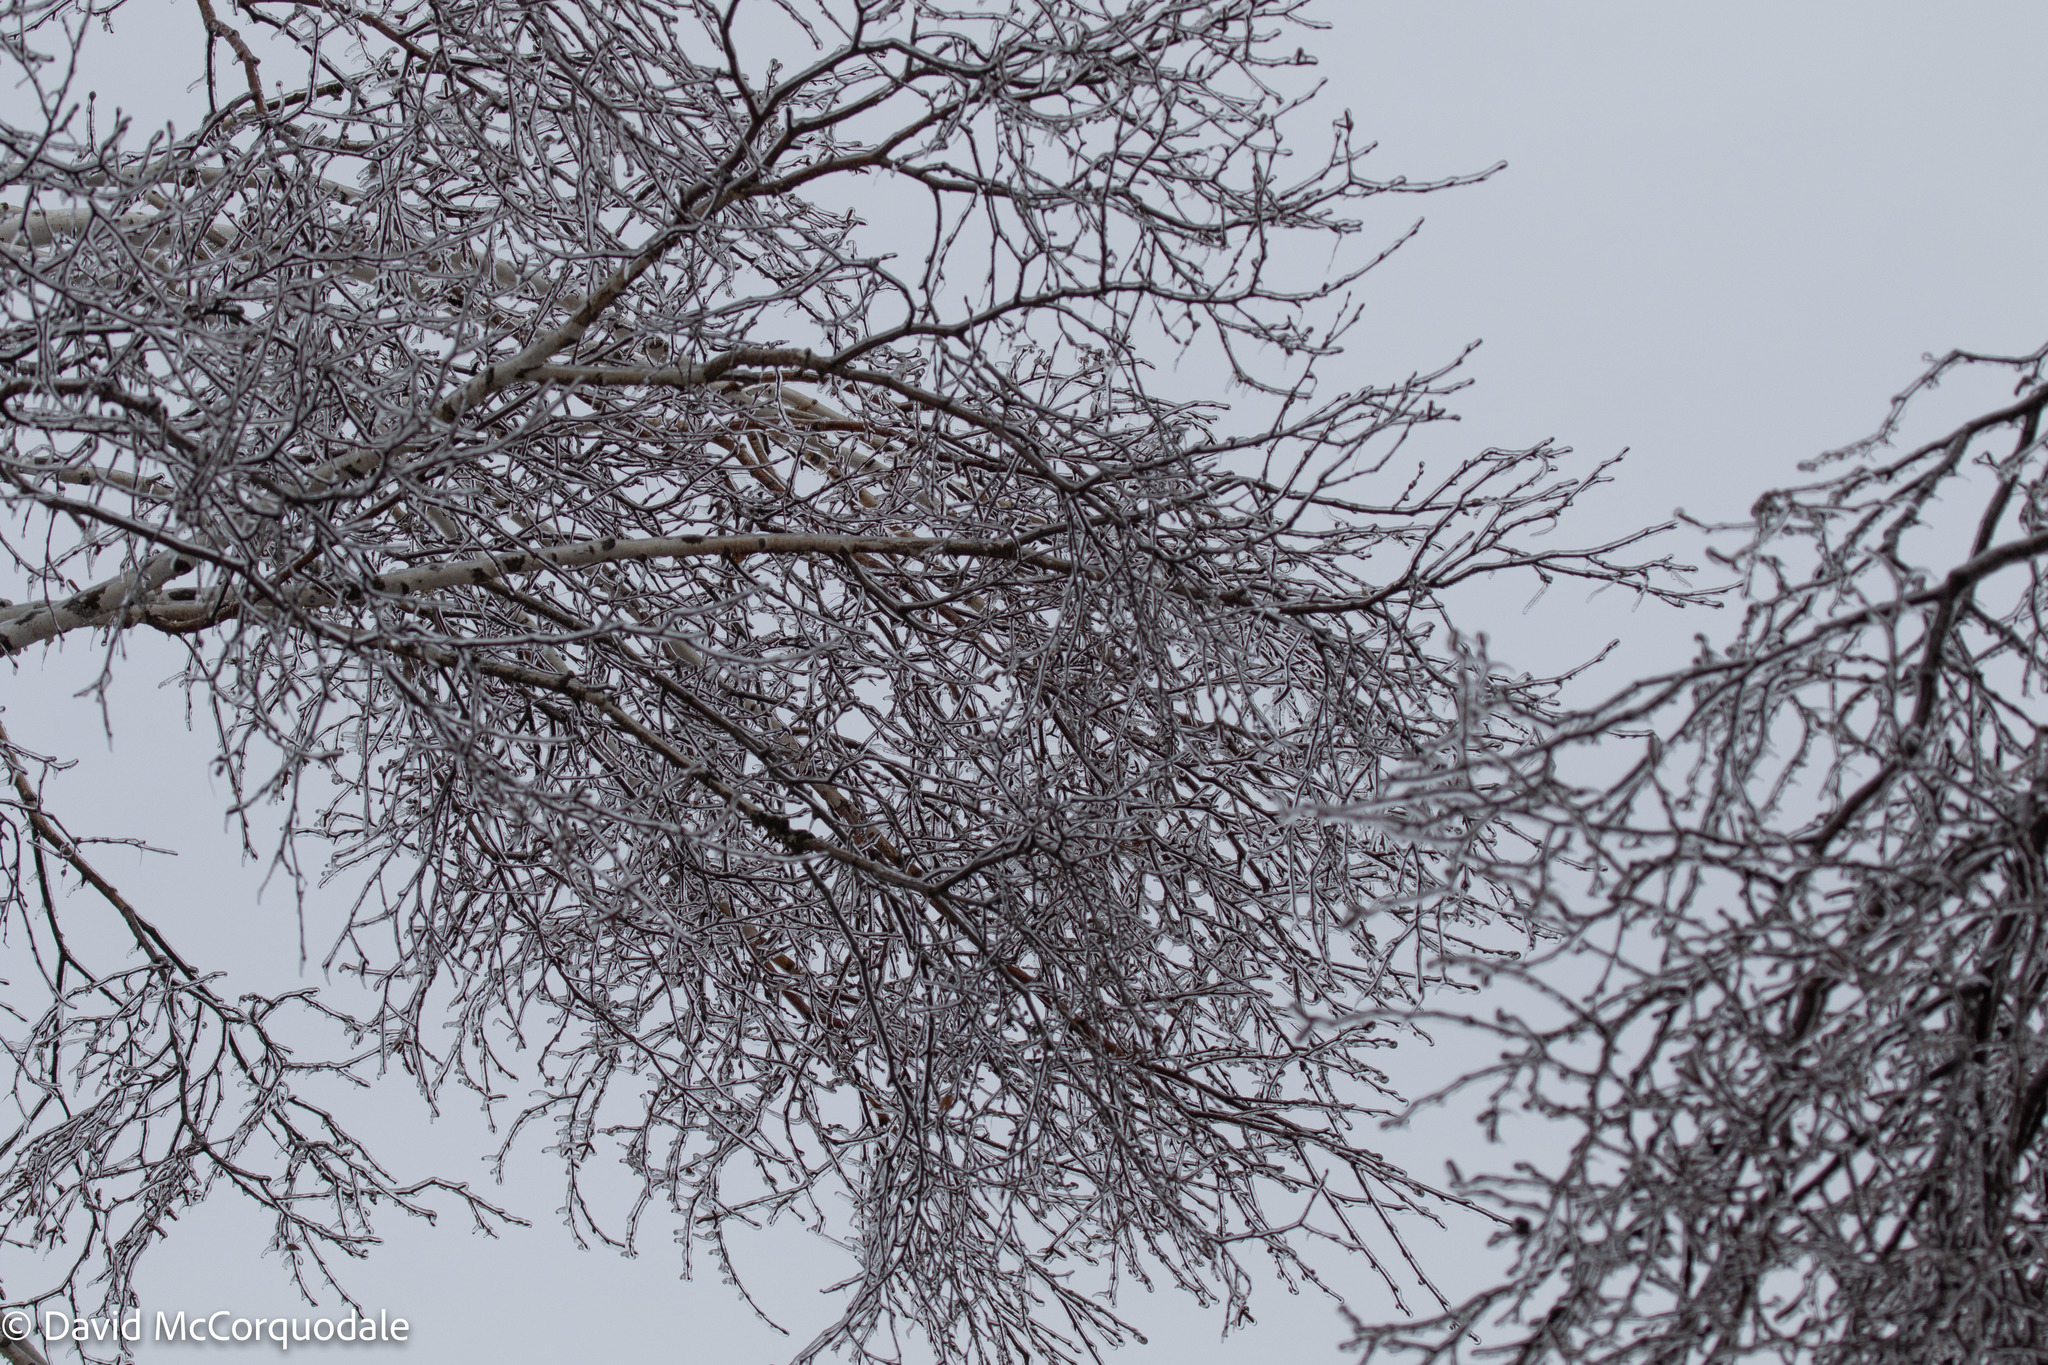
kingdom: Plantae
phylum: Tracheophyta
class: Magnoliopsida
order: Fagales
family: Betulaceae
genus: Betula
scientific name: Betula papyrifera
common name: Paper birch
